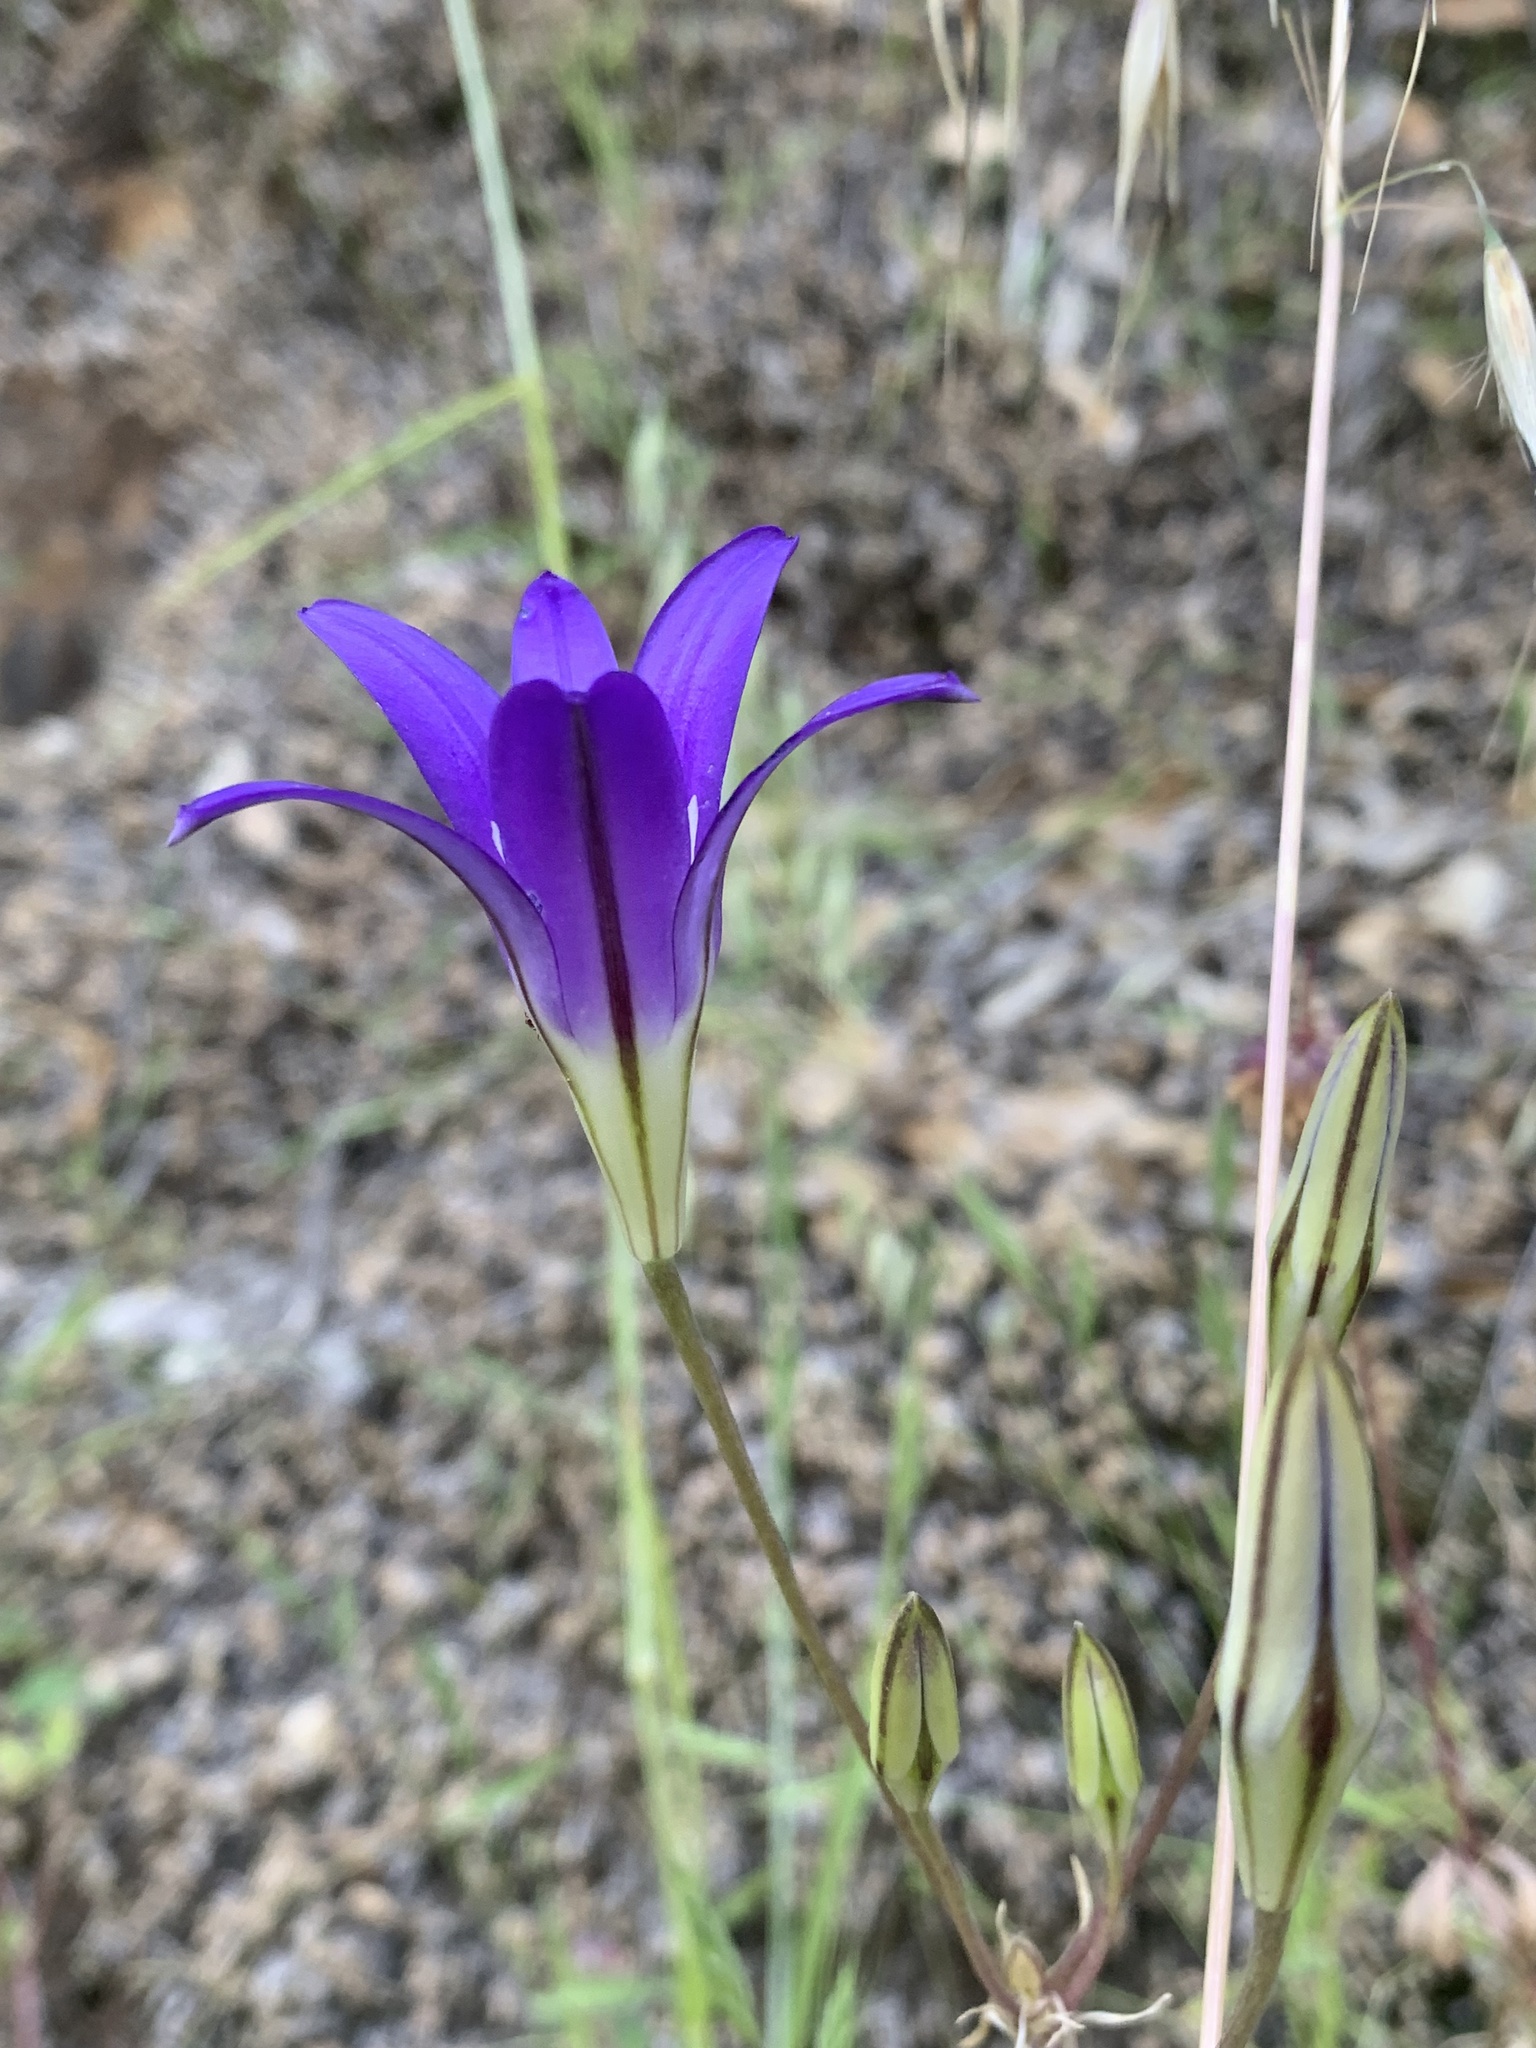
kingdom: Plantae
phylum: Tracheophyta
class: Liliopsida
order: Asparagales
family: Asparagaceae
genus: Brodiaea
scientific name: Brodiaea elegans
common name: Elegant cluster-lily
